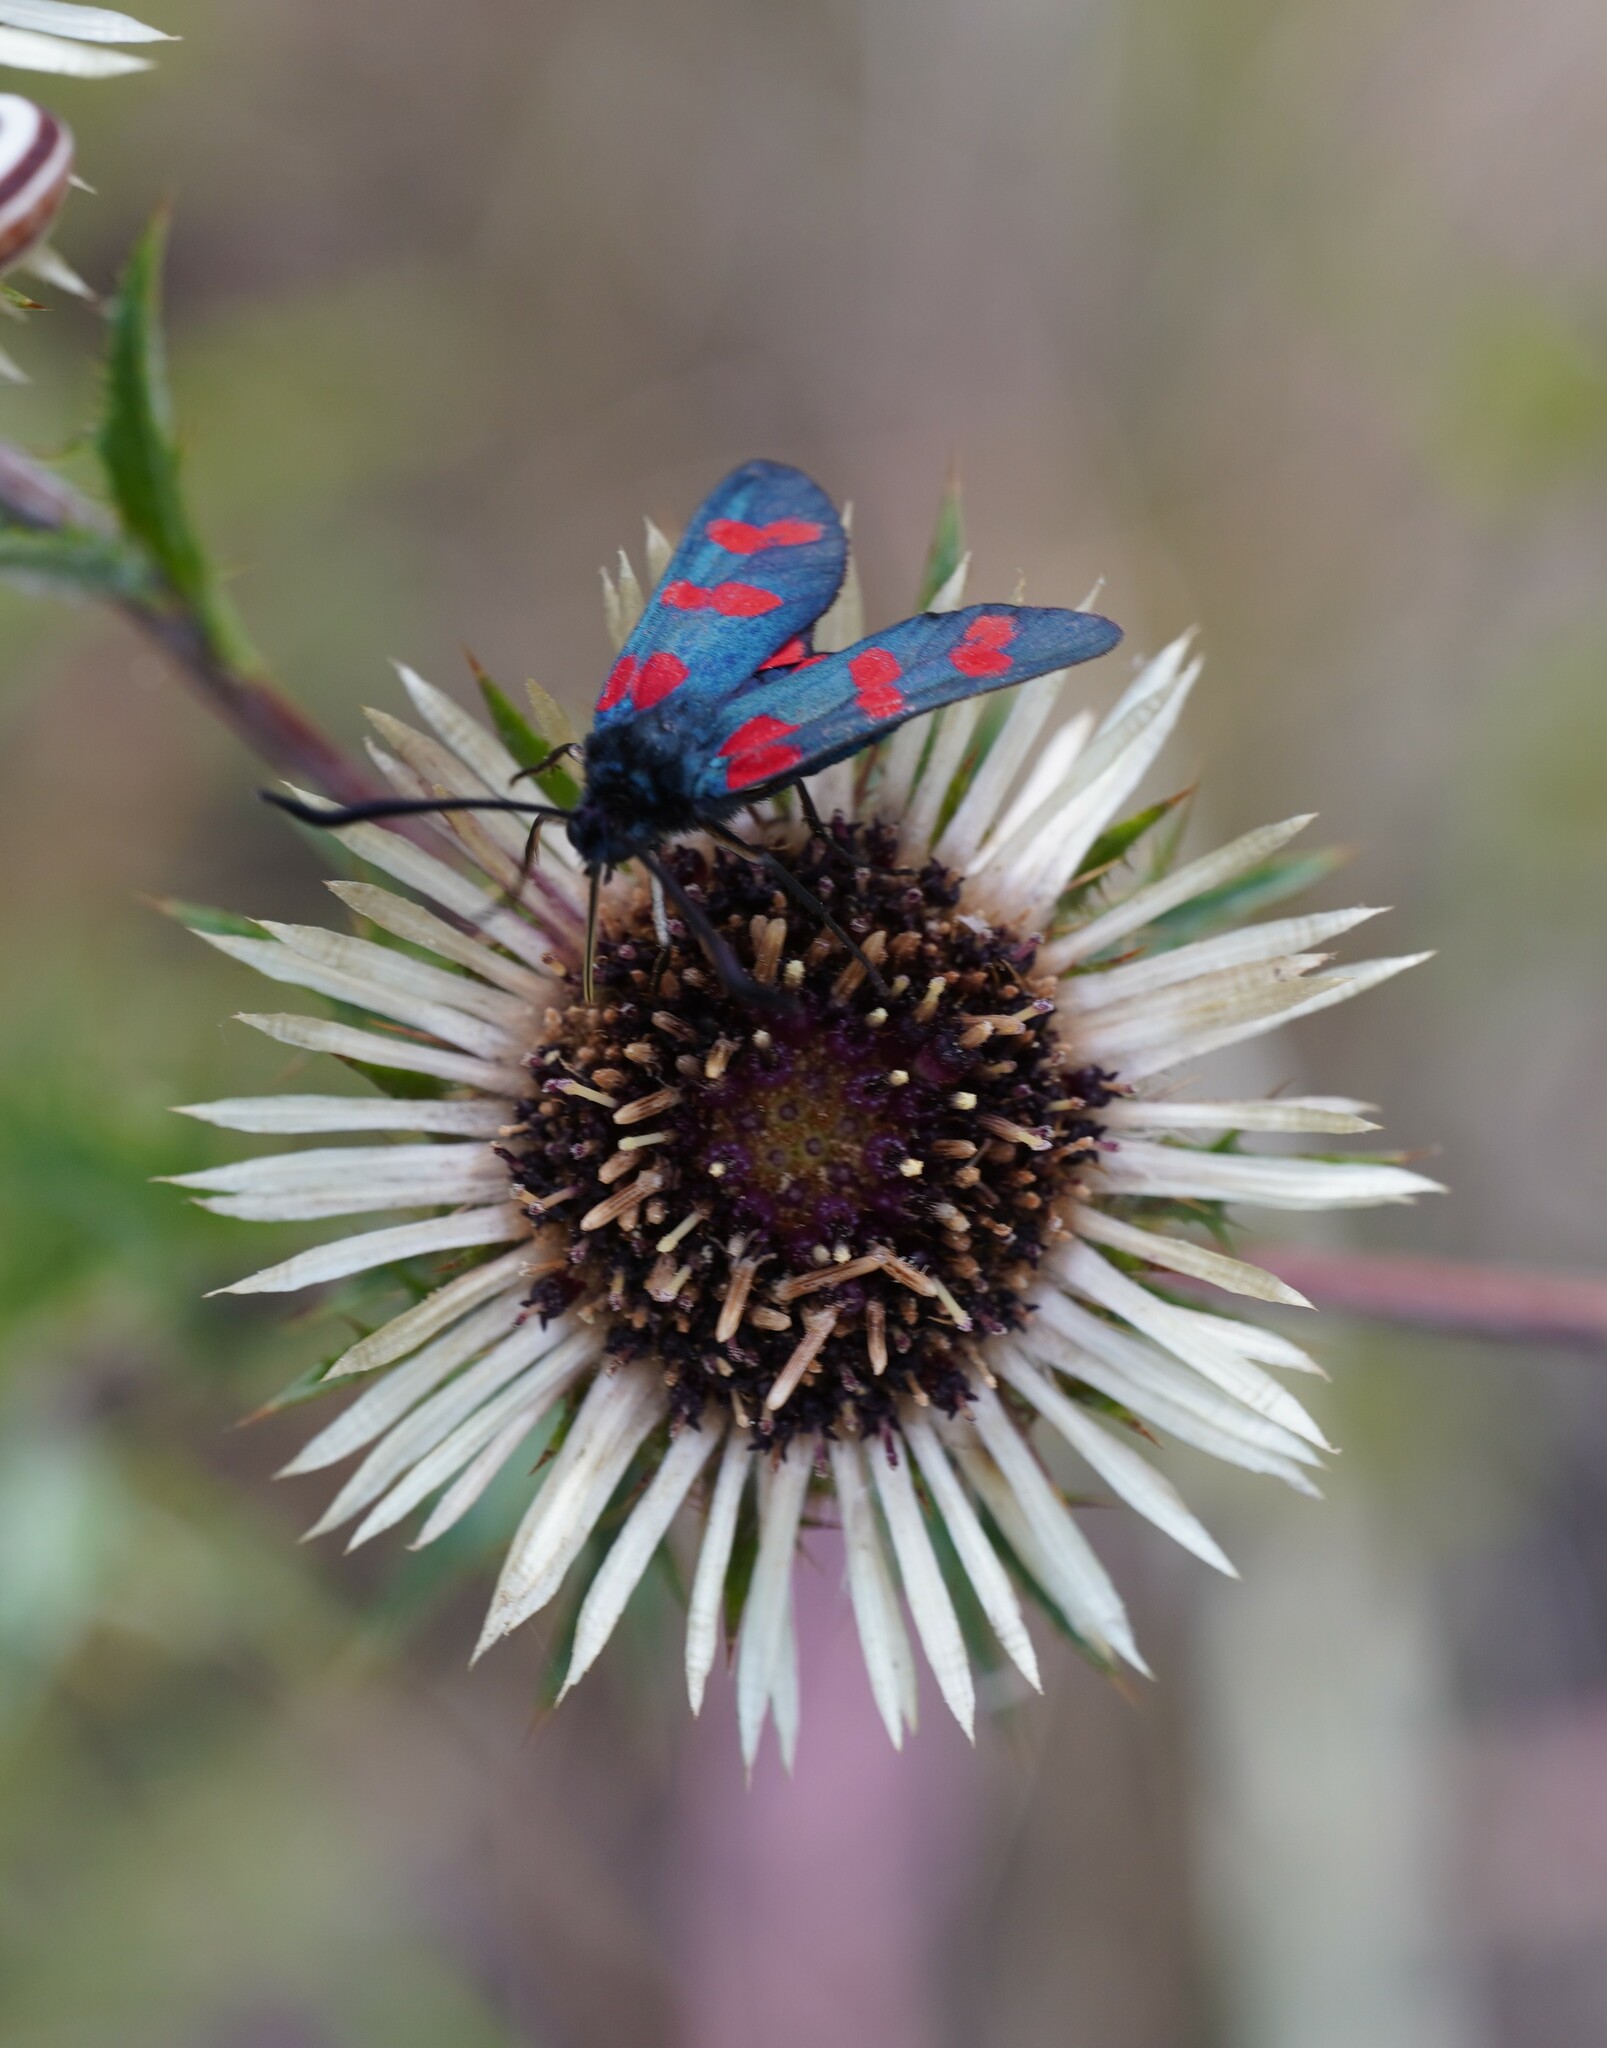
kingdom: Animalia
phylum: Arthropoda
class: Insecta
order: Lepidoptera
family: Zygaenidae
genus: Zygaena
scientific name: Zygaena filipendulae
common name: Six-spot burnet
